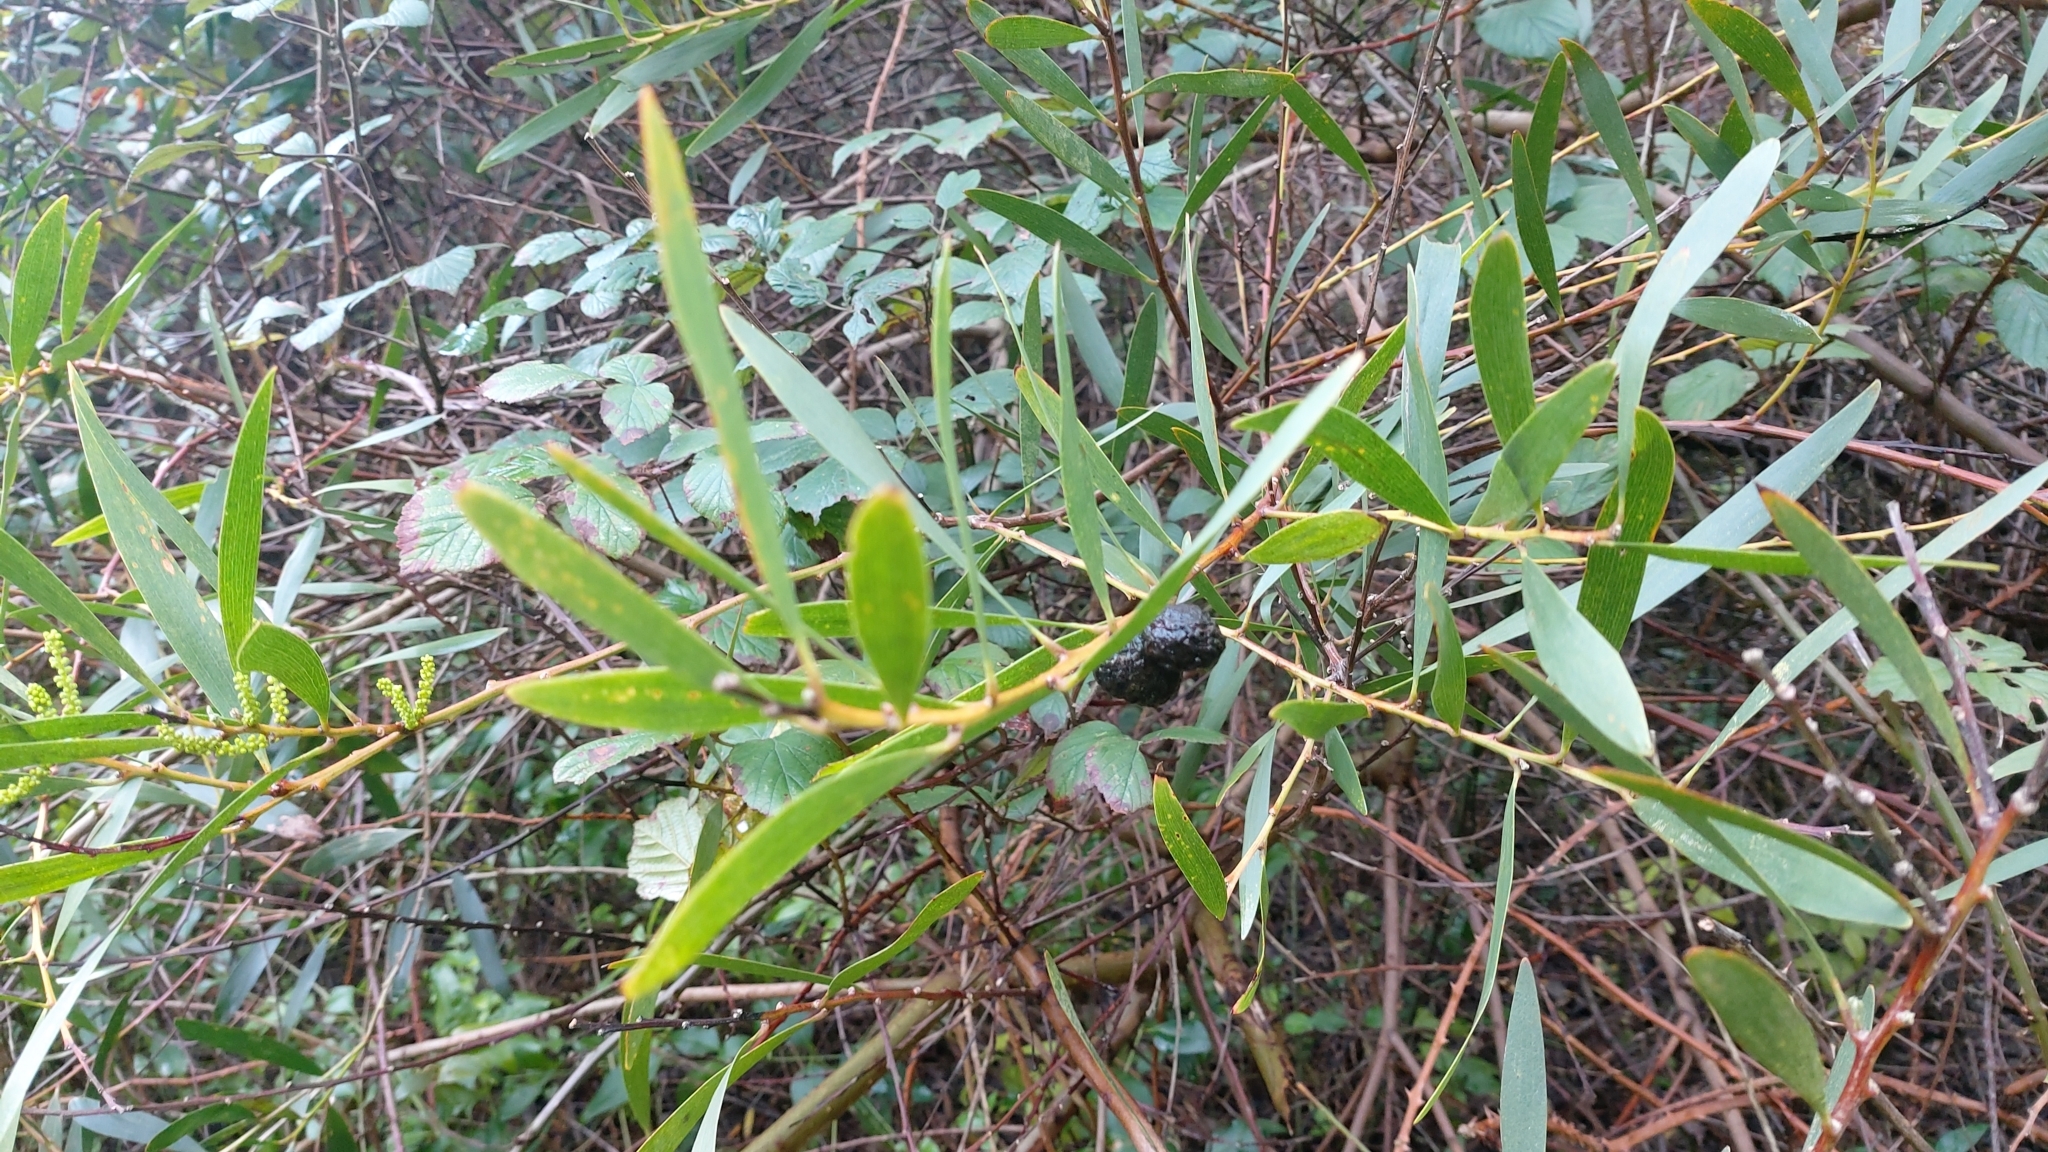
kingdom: Animalia
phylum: Arthropoda
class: Insecta
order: Hymenoptera
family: Pteromalidae
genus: Trichilogaster
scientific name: Trichilogaster acaciaelongifoliae
